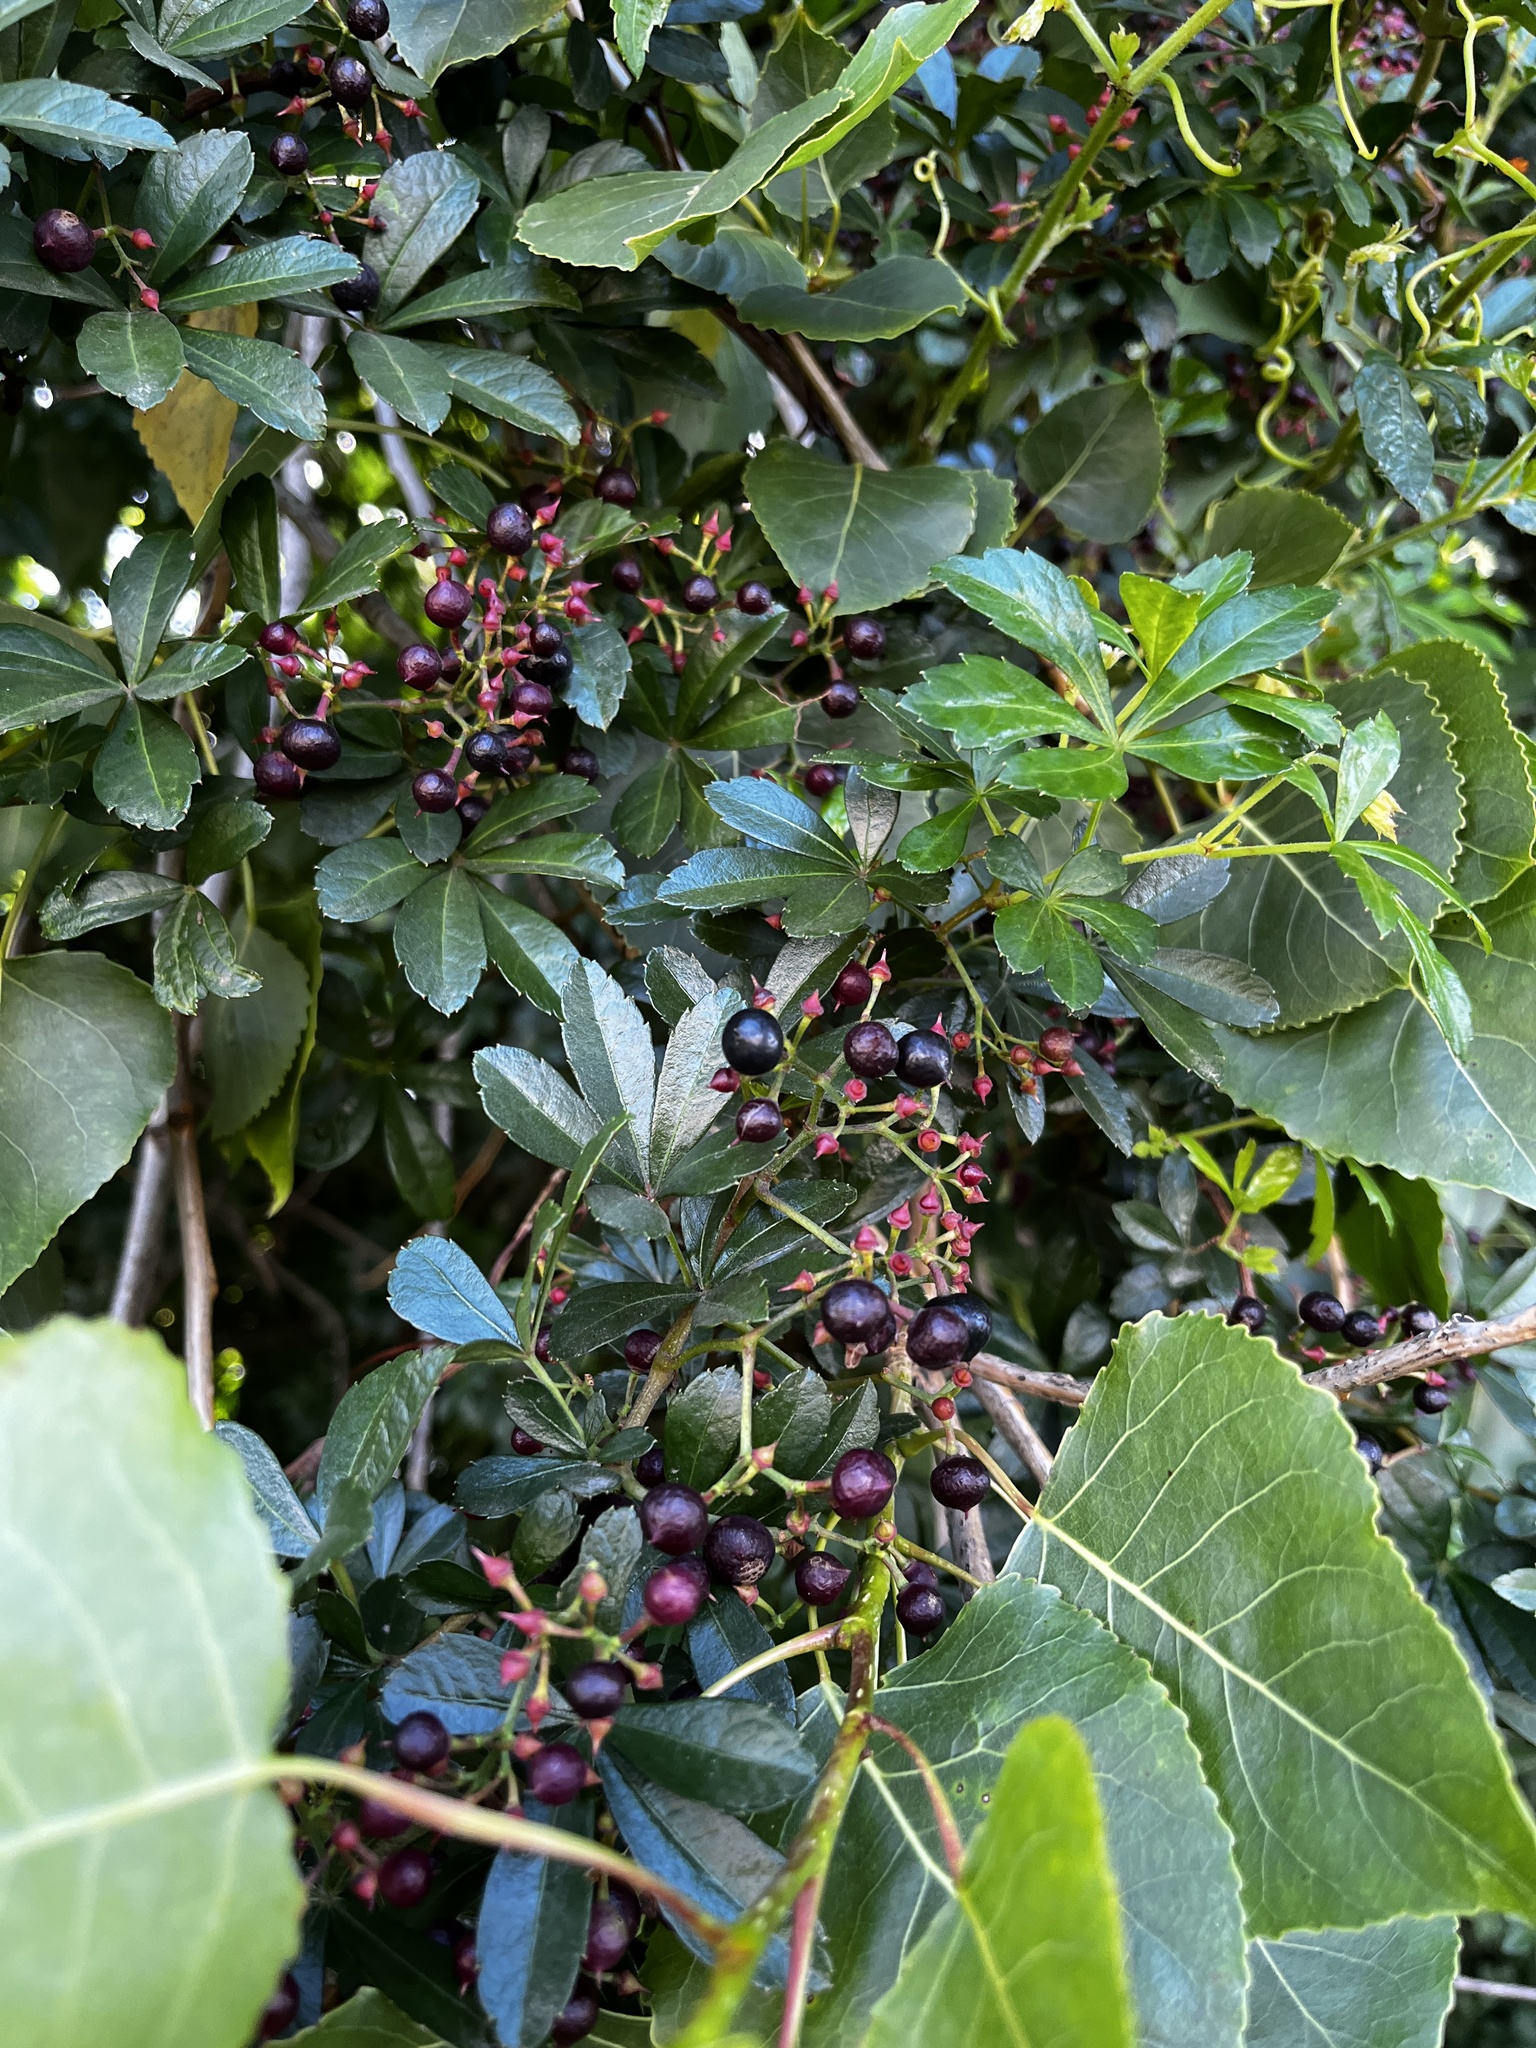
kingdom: Plantae
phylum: Tracheophyta
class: Magnoliopsida
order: Vitales
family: Vitaceae
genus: Clematicissus
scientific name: Clematicissus striata
